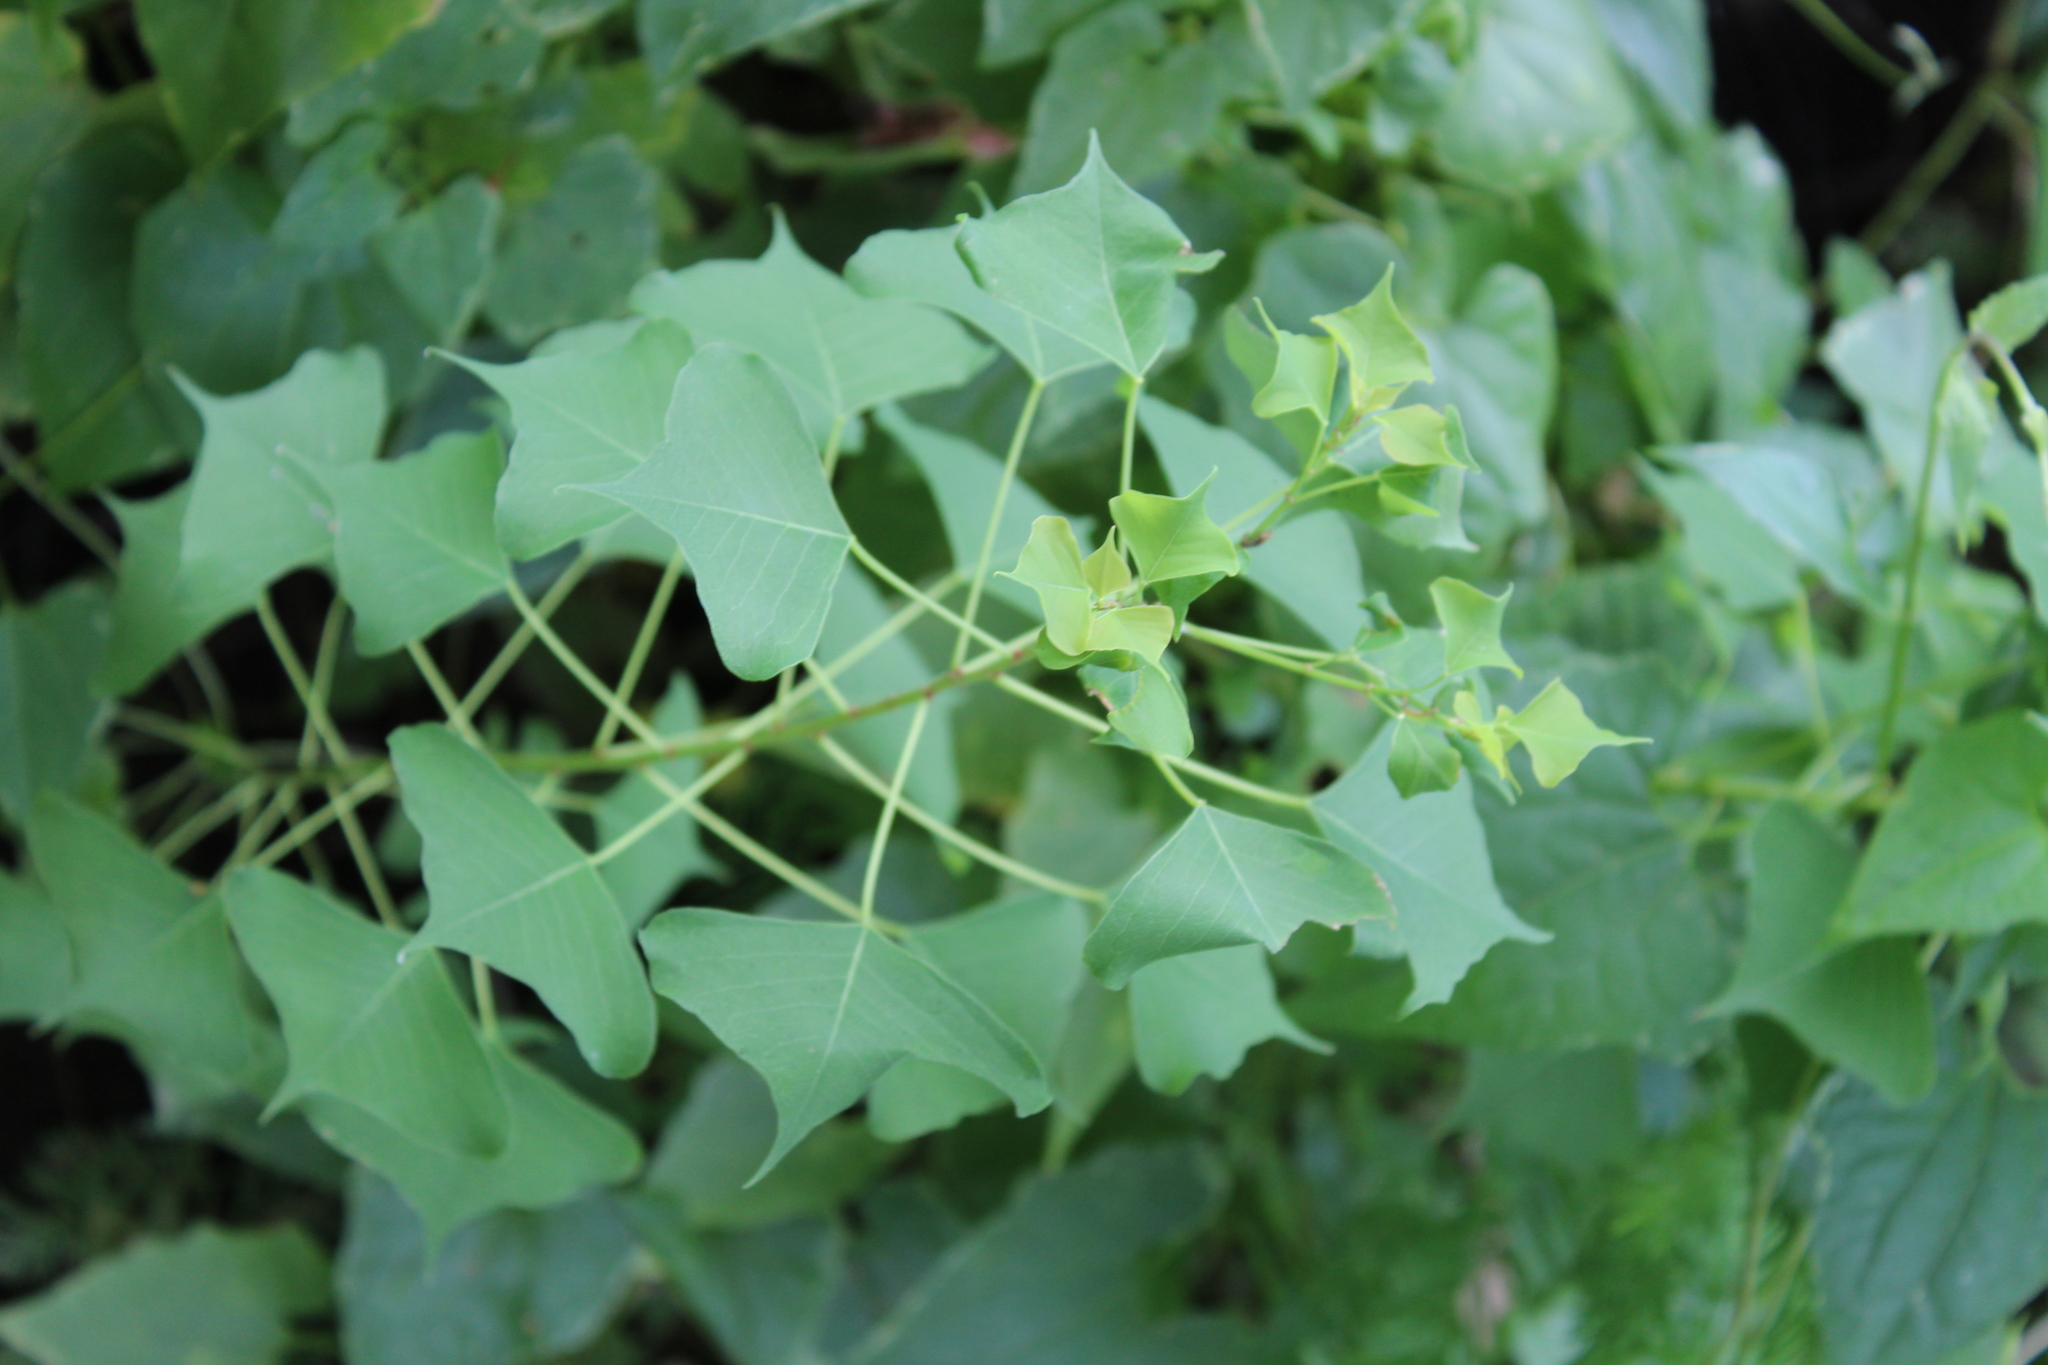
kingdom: Plantae
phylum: Tracheophyta
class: Magnoliopsida
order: Malpighiales
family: Euphorbiaceae
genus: Triadica
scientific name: Triadica sebifera
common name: Chinese tallow
